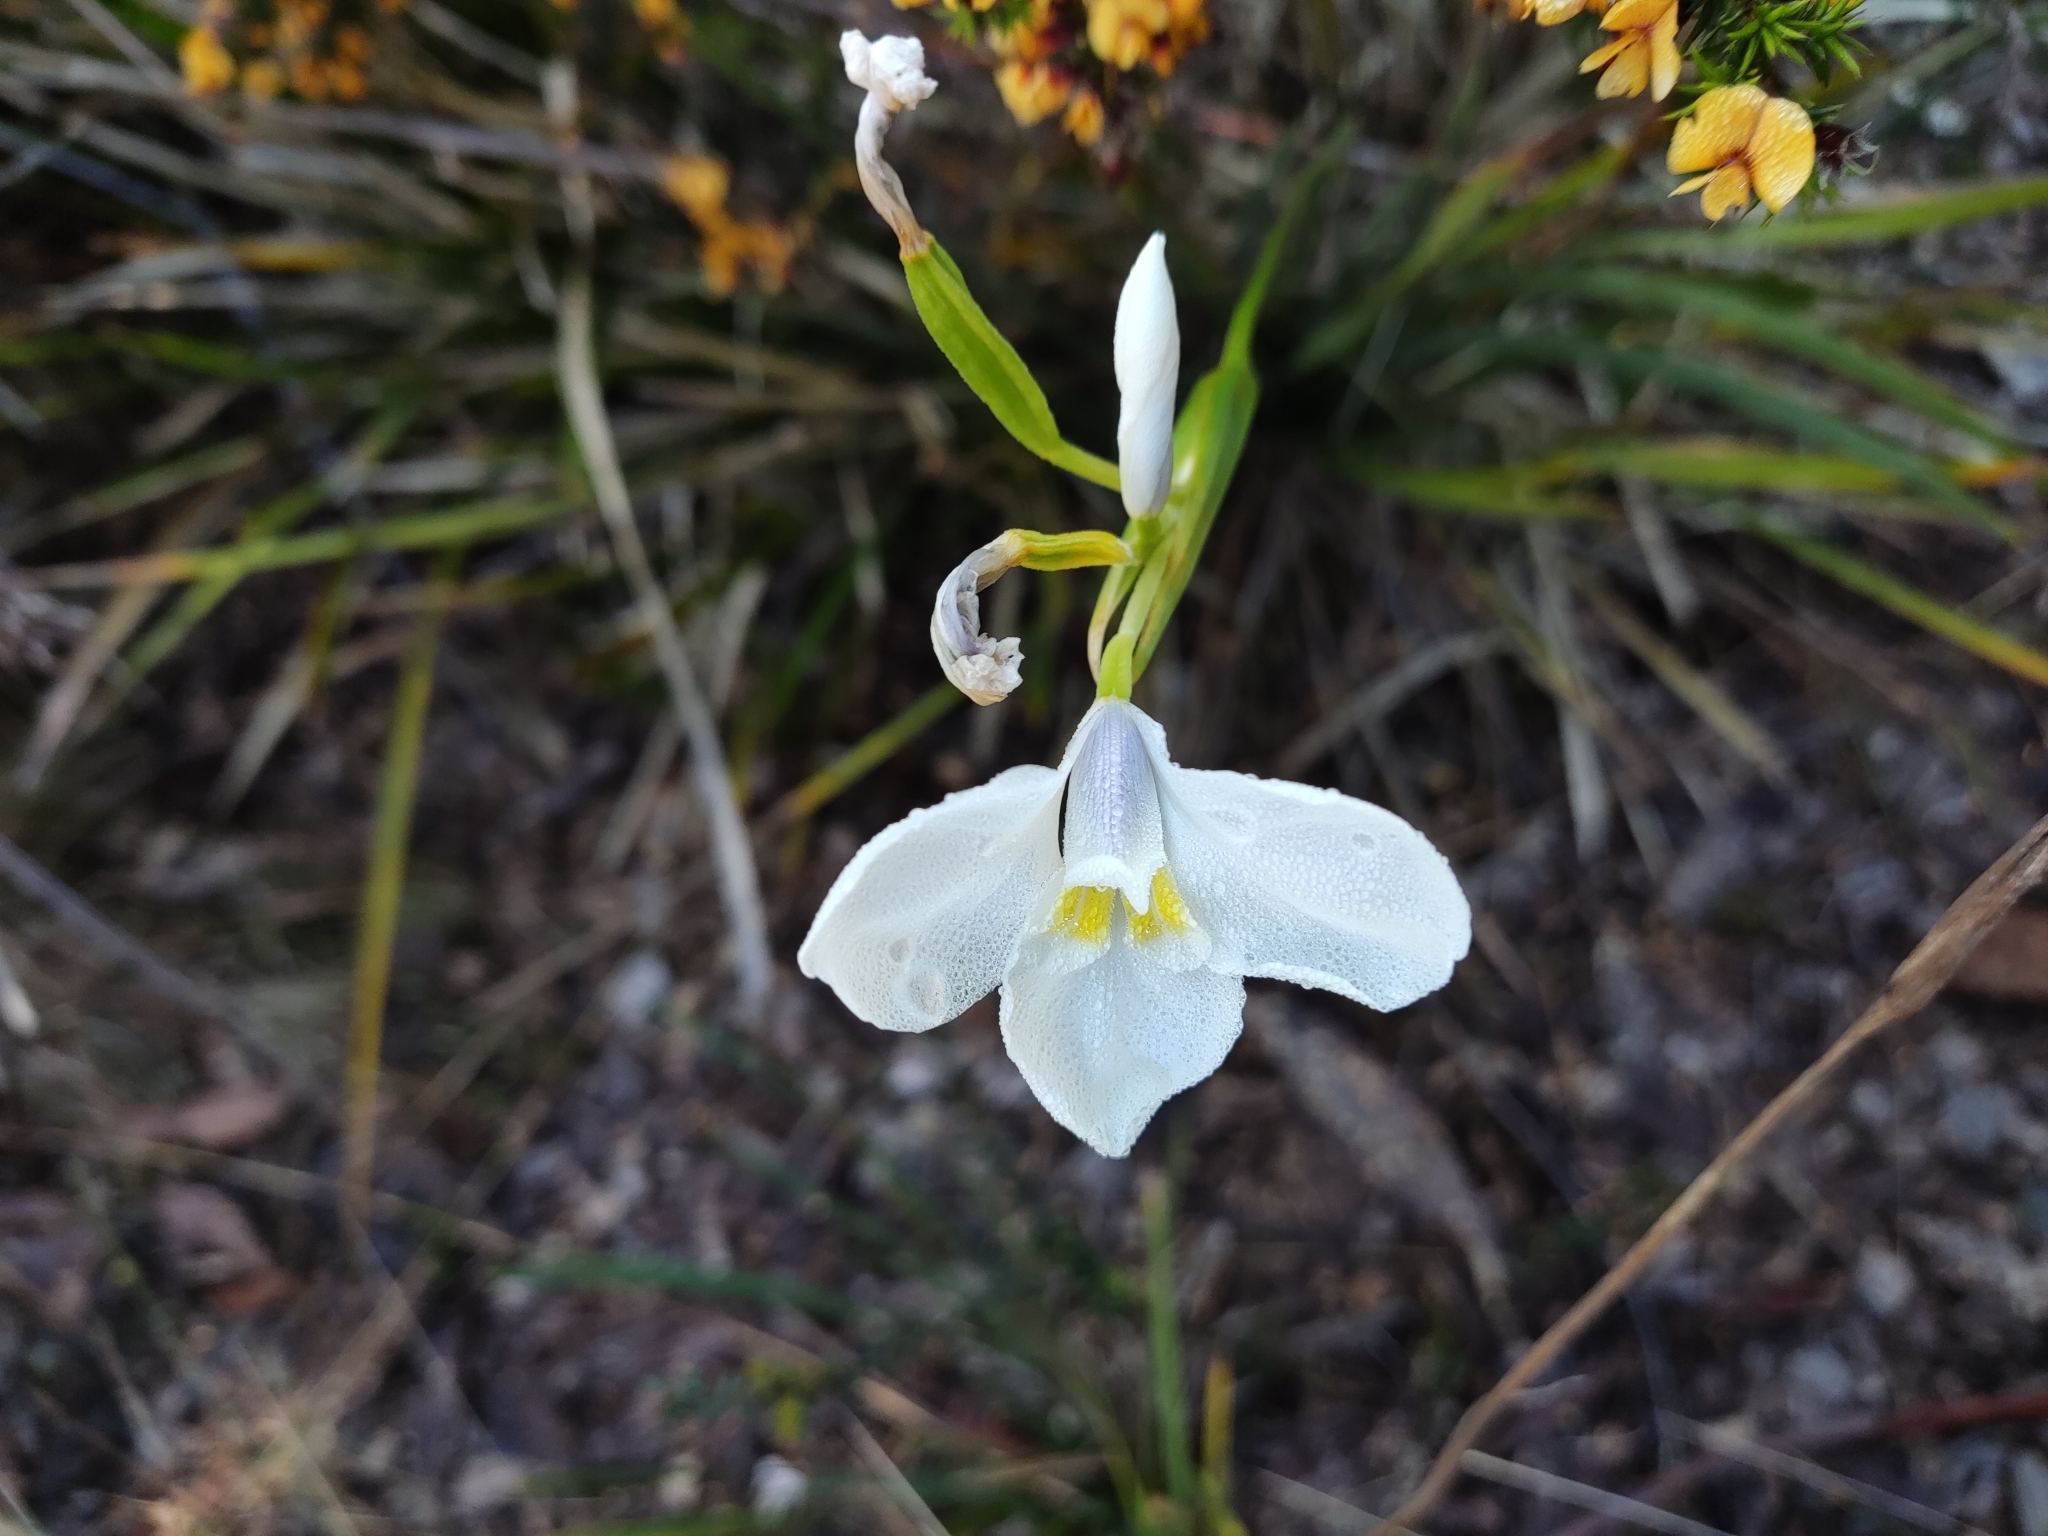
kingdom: Plantae
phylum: Tracheophyta
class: Liliopsida
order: Asparagales
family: Iridaceae
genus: Diplarrena
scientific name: Diplarrena moraea
